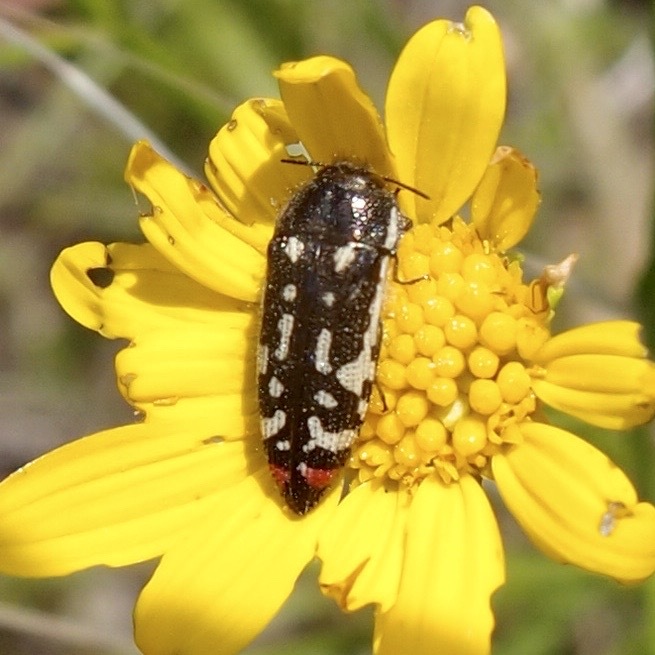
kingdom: Animalia
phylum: Arthropoda
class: Insecta
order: Coleoptera
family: Buprestidae
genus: Acmaeodera
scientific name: Acmaeodera amabilis
